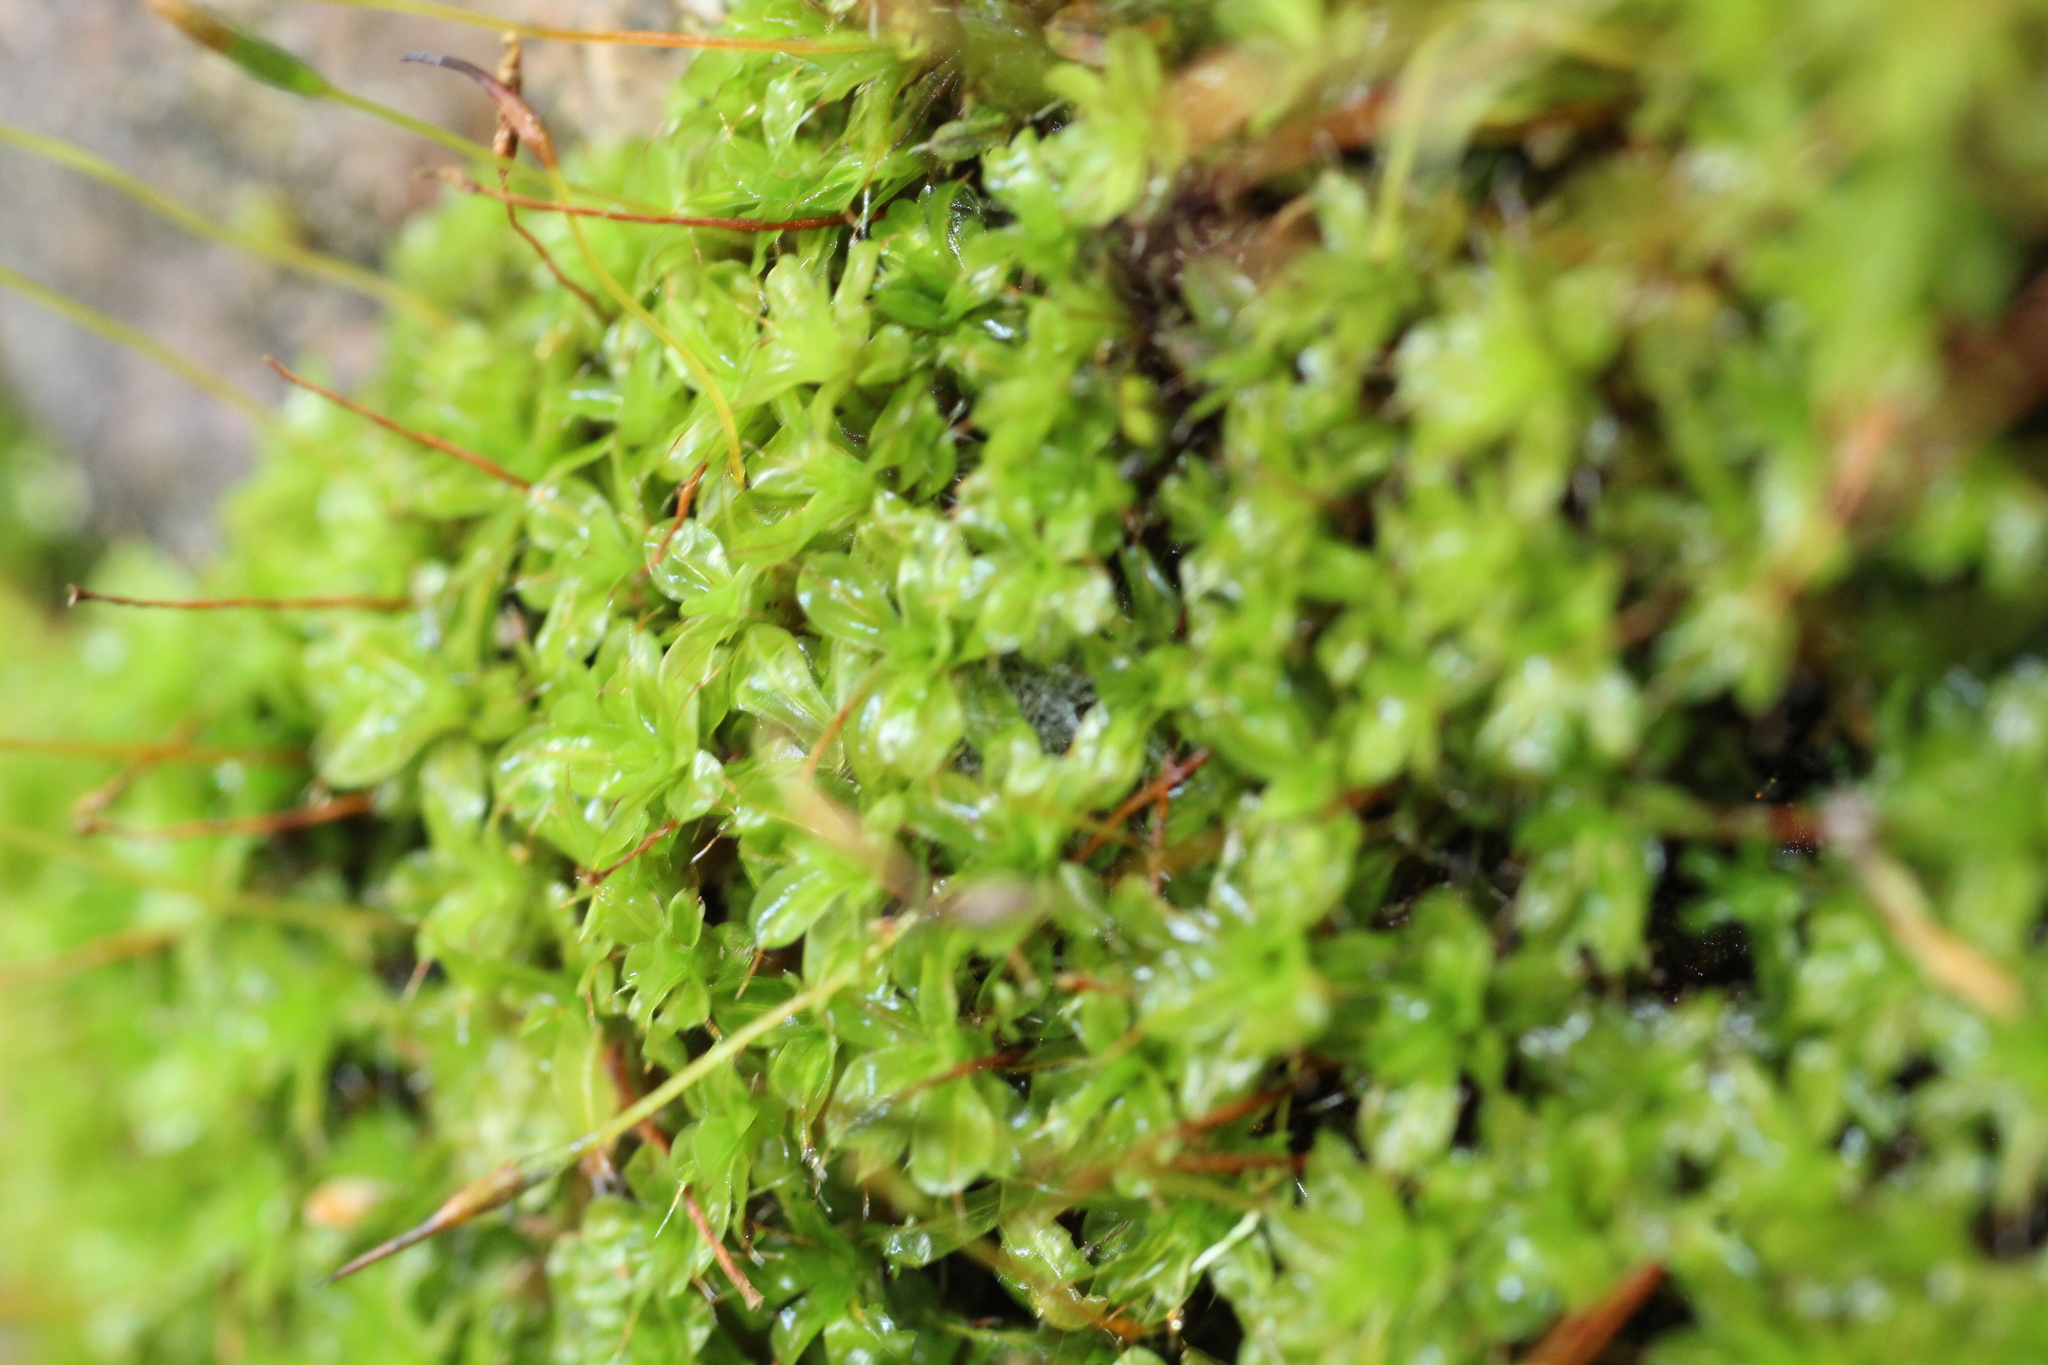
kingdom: Plantae
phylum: Bryophyta
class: Bryopsida
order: Pottiales
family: Pottiaceae
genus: Syntrichia
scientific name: Syntrichia papillosa
